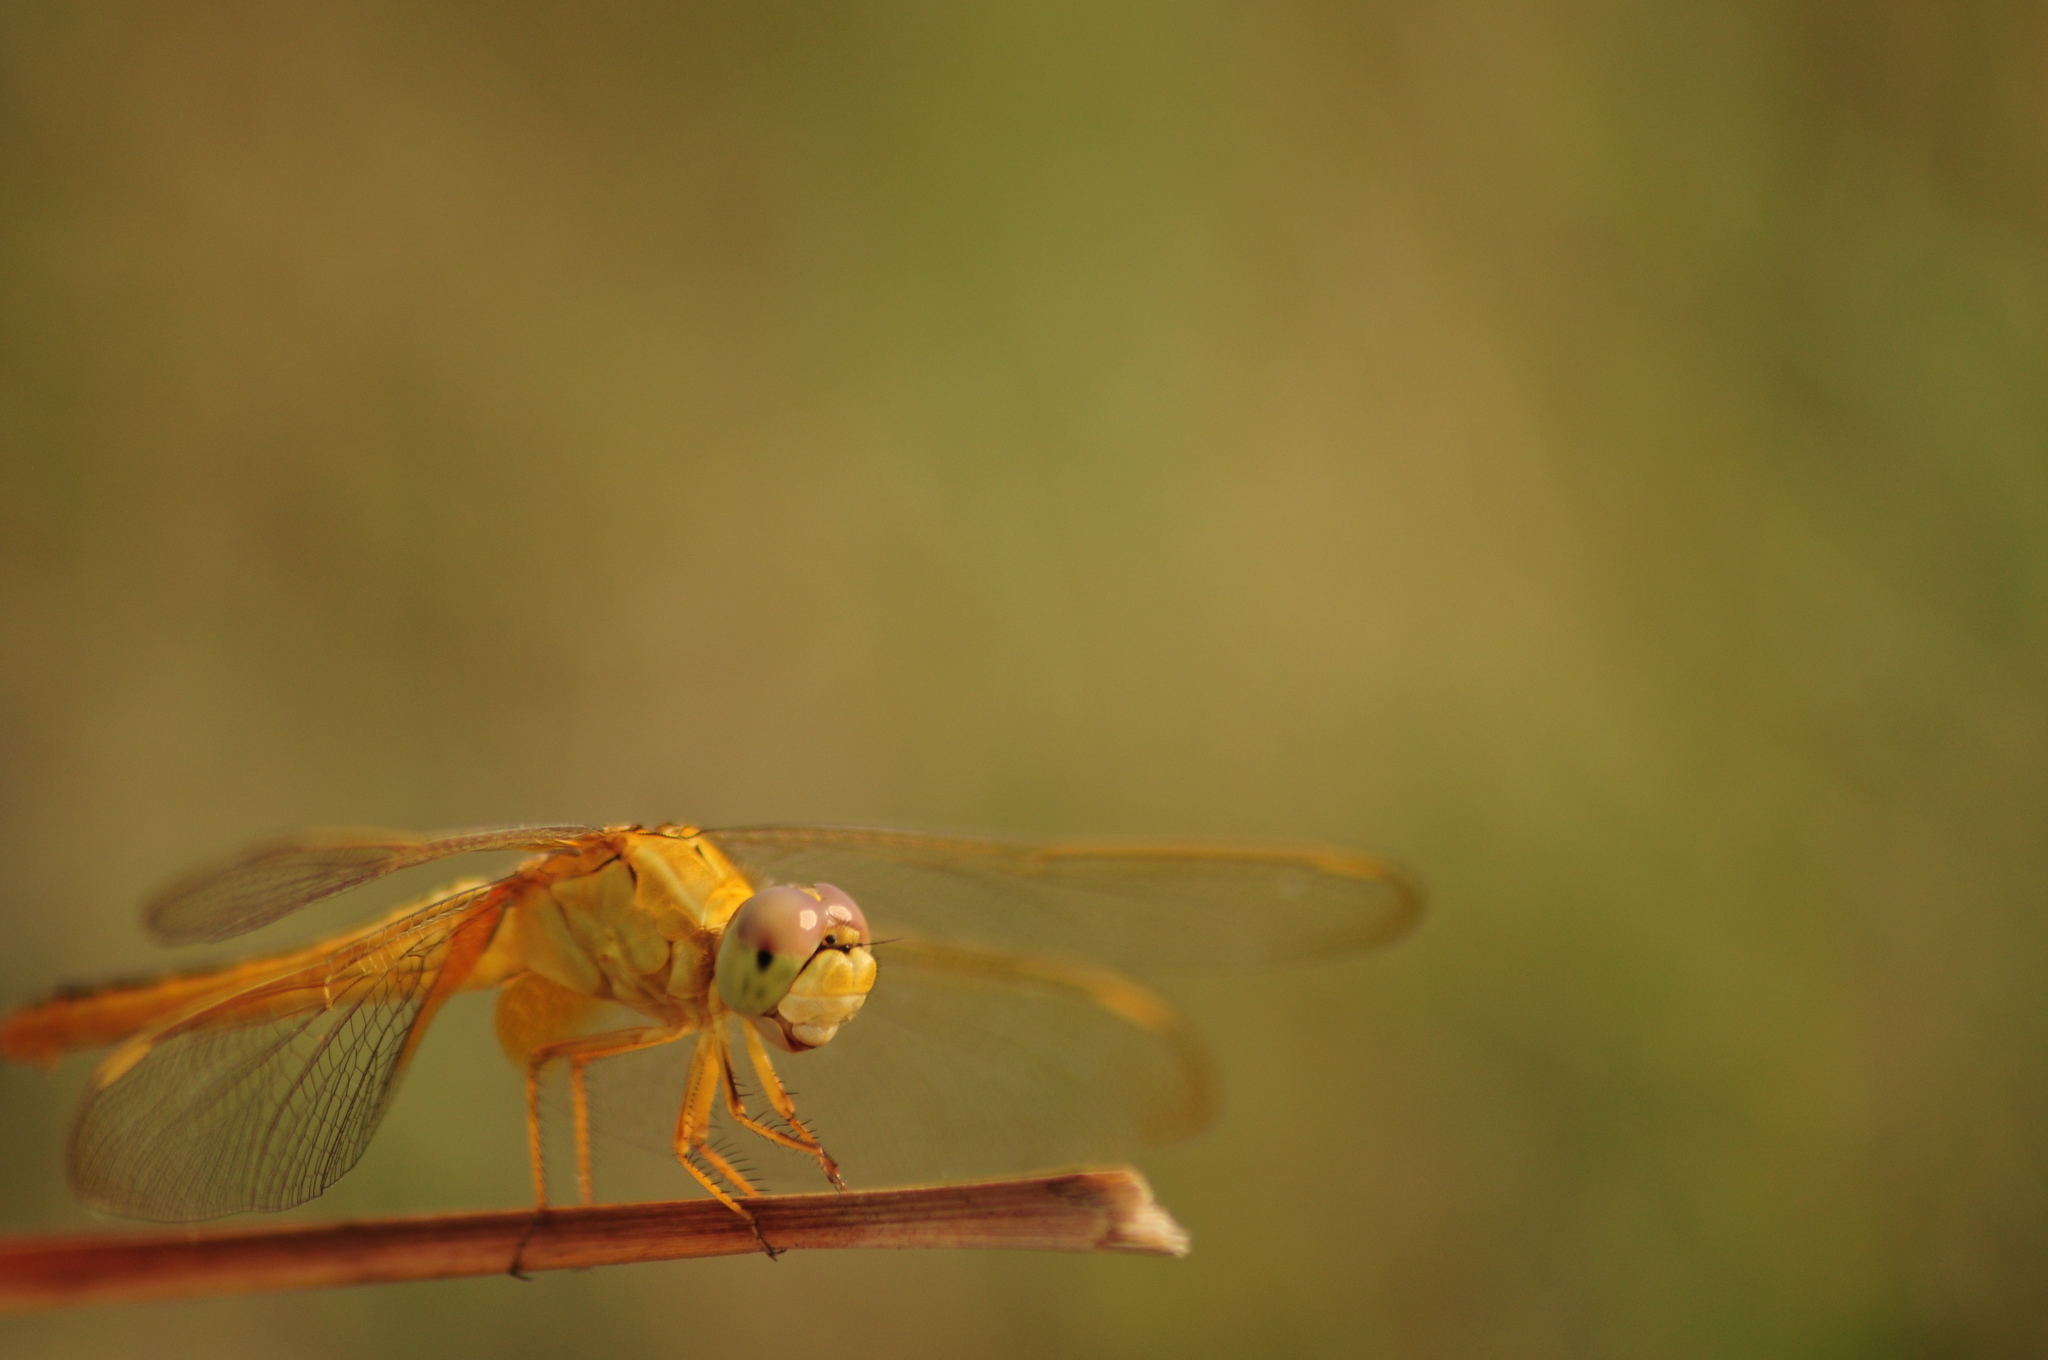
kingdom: Animalia
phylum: Arthropoda
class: Insecta
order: Odonata
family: Libellulidae
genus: Crocothemis
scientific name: Crocothemis servilia
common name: Scarlet skimmer
